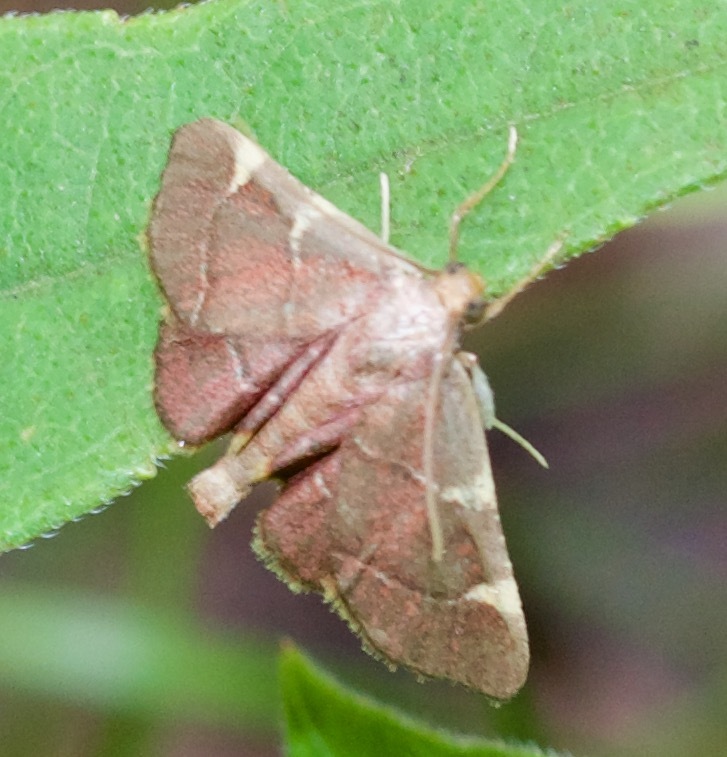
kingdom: Animalia
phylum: Arthropoda
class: Insecta
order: Lepidoptera
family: Pyralidae
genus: Hypsopygia
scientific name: Hypsopygia olinalis
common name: Yellow-fringed dolichomia moth
